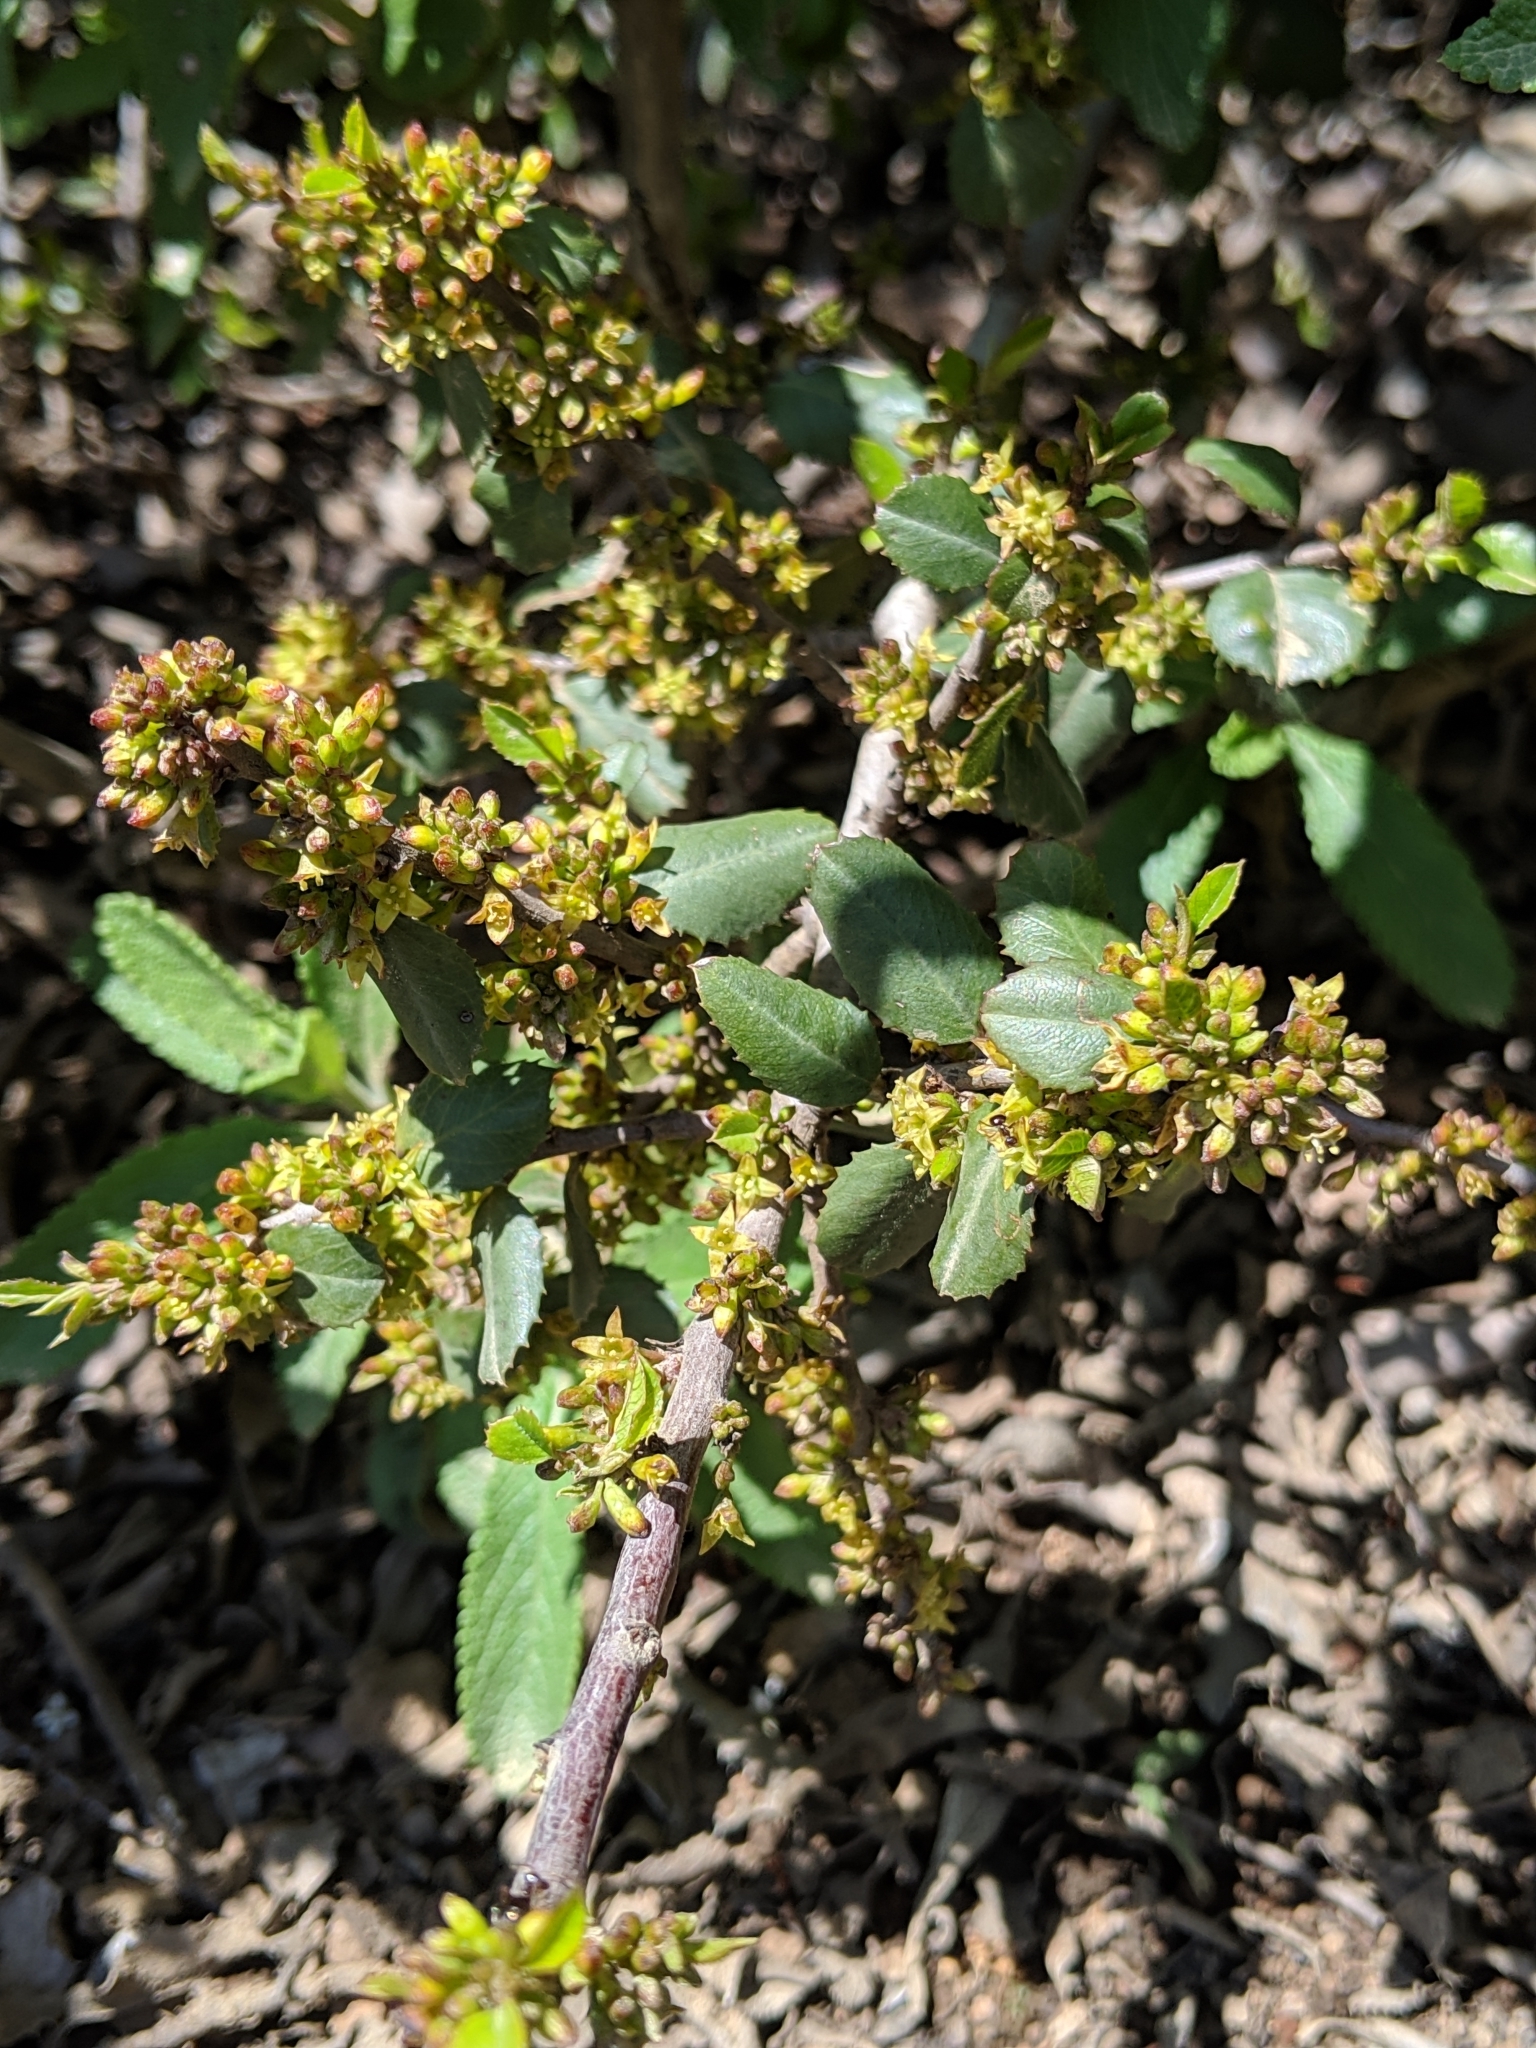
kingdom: Plantae
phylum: Tracheophyta
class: Magnoliopsida
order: Rosales
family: Rhamnaceae
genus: Endotropis
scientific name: Endotropis crocea
